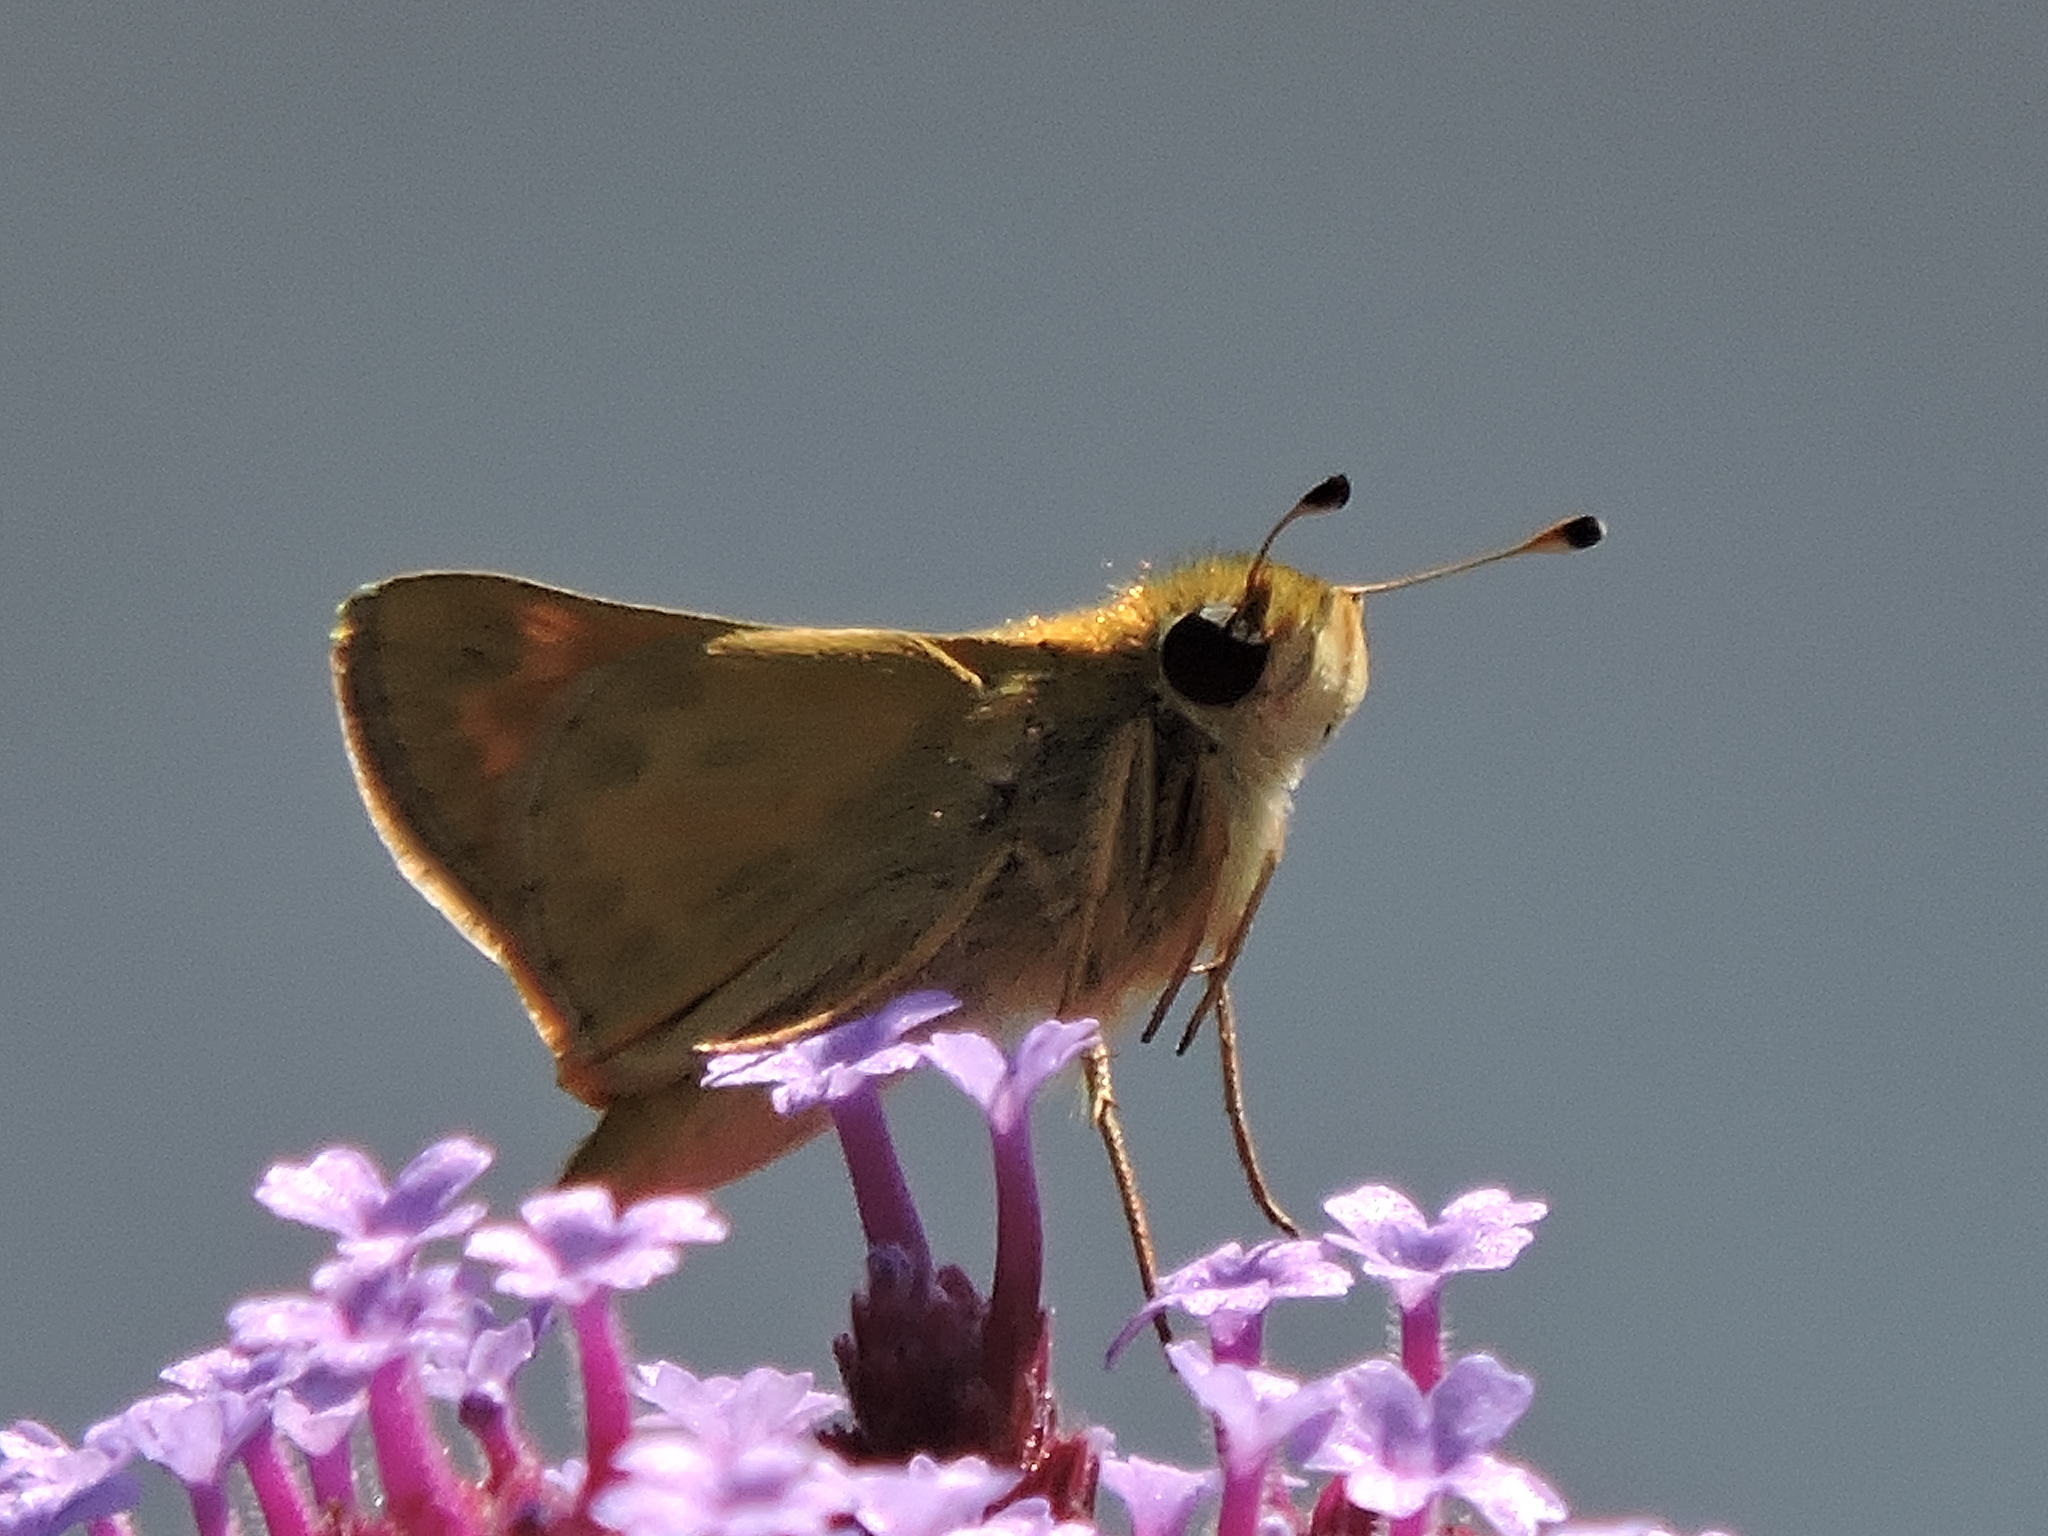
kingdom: Animalia
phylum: Arthropoda
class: Insecta
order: Lepidoptera
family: Hesperiidae
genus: Atalopedes
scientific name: Atalopedes campestris
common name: Sachem
